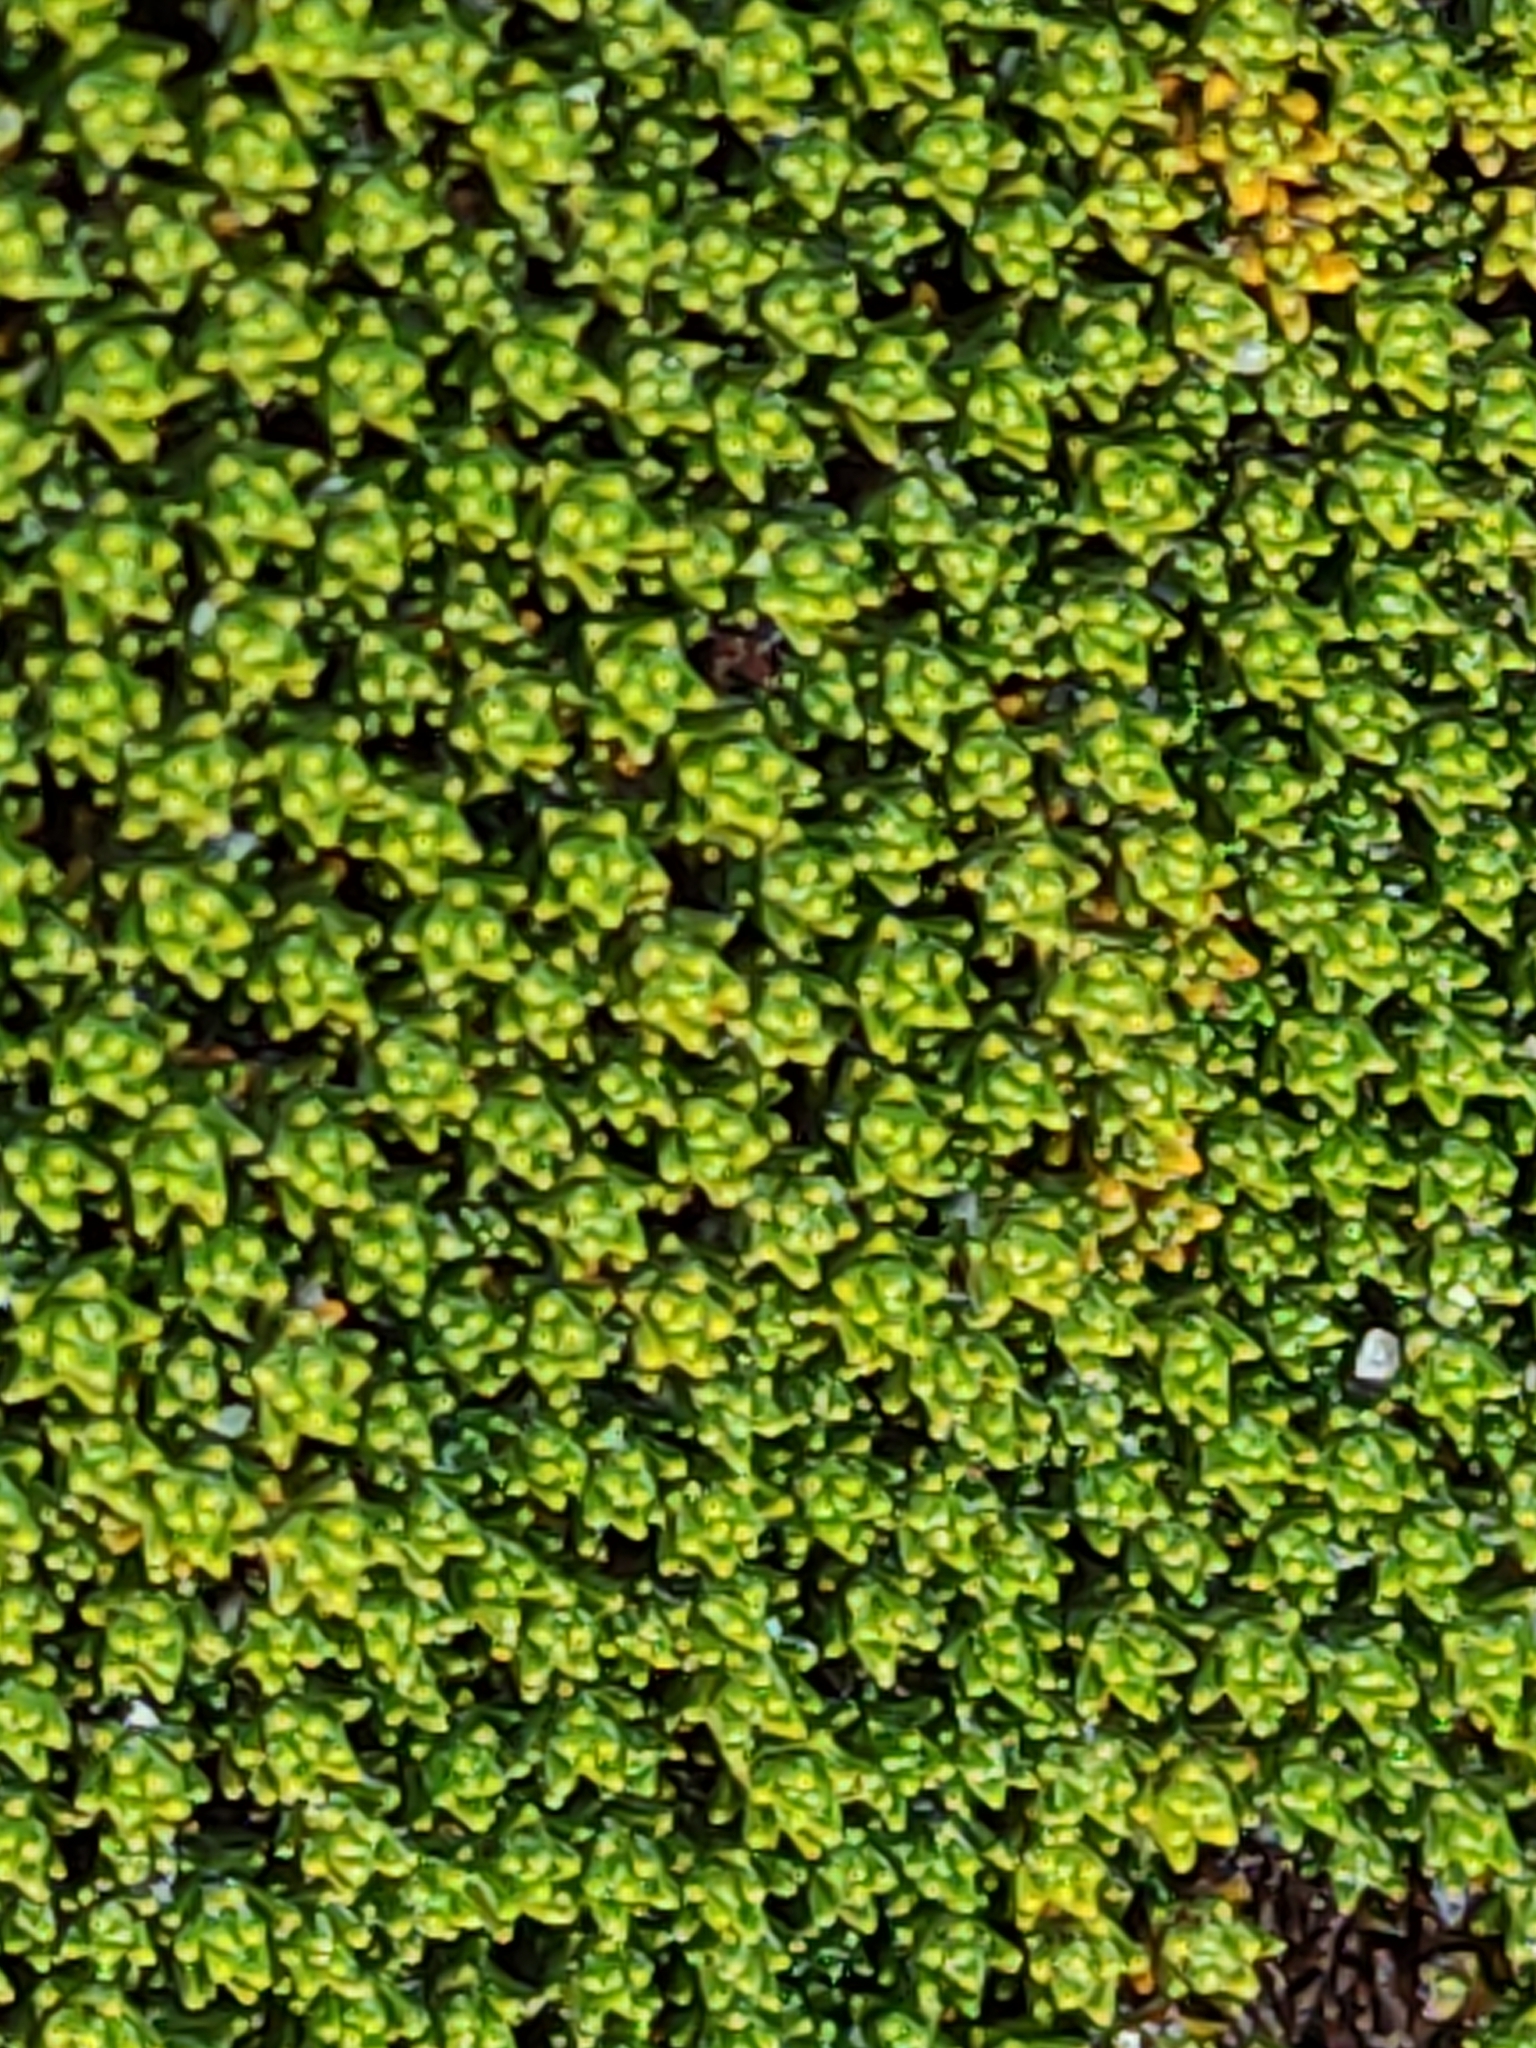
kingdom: Plantae
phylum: Tracheophyta
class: Magnoliopsida
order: Asterales
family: Asteraceae
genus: Raoulia
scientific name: Raoulia haastii
